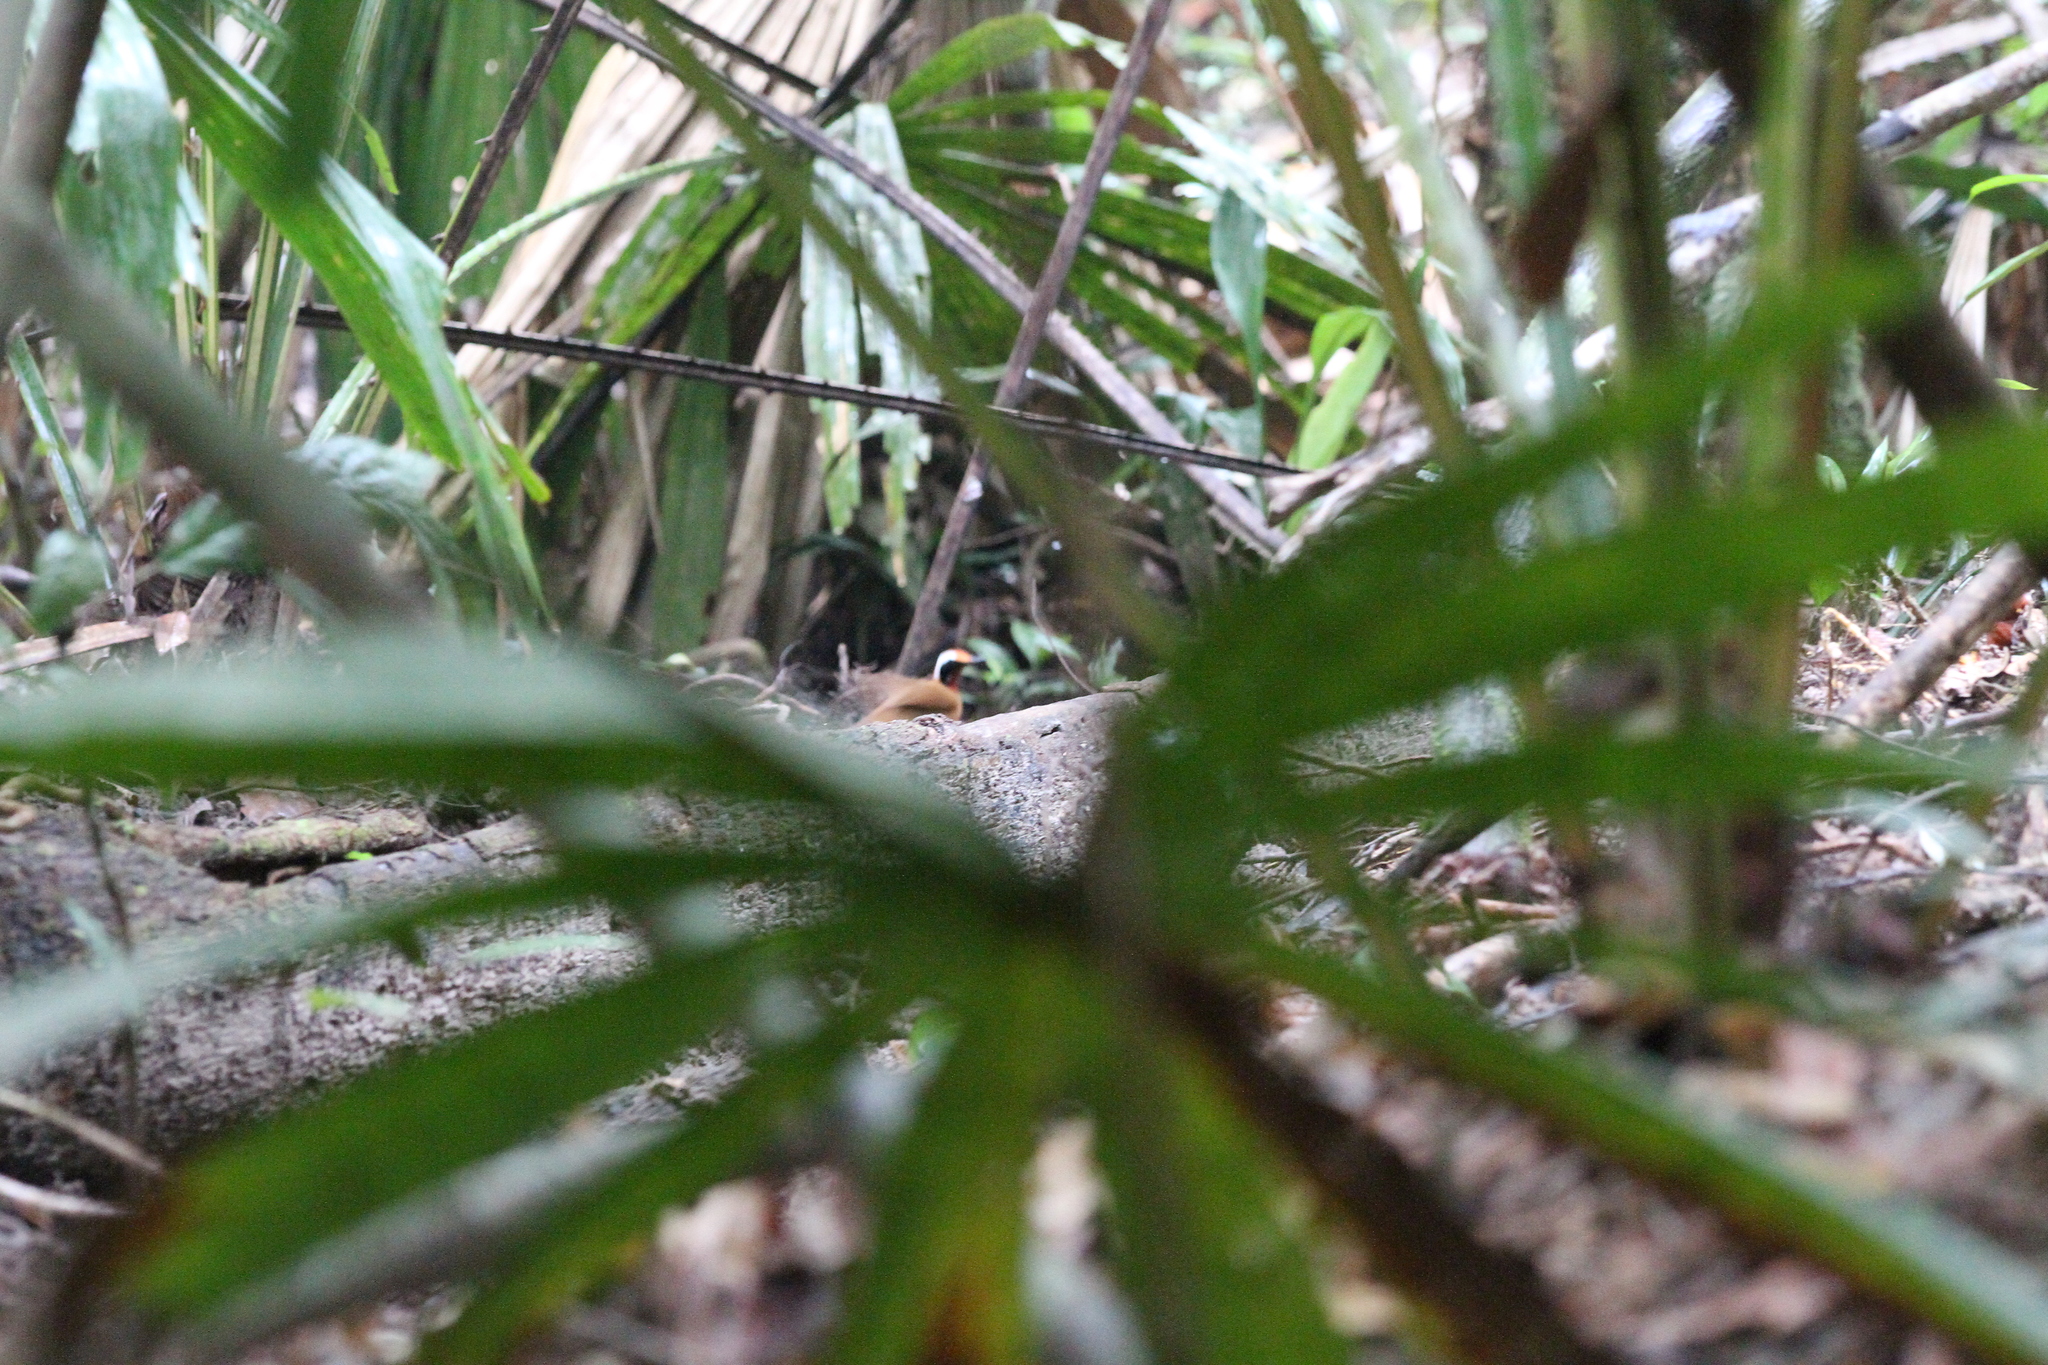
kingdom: Animalia
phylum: Chordata
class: Aves
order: Passeriformes
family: Eupetidae
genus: Eupetes
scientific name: Eupetes macrocerus
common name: Malaysian rail-babbler
